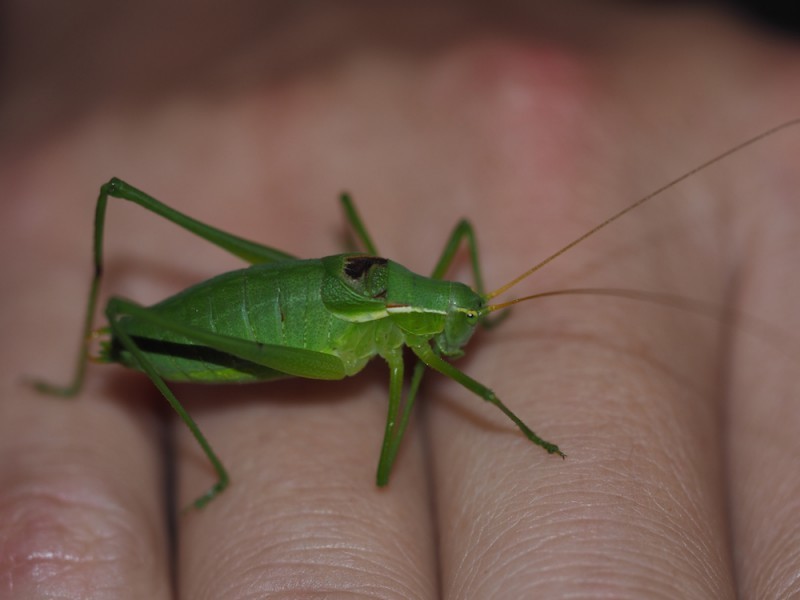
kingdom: Animalia
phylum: Arthropoda
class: Insecta
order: Orthoptera
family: Tettigoniidae
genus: Isophya
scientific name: Isophya modestior
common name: More-modest plump bush-cricket
